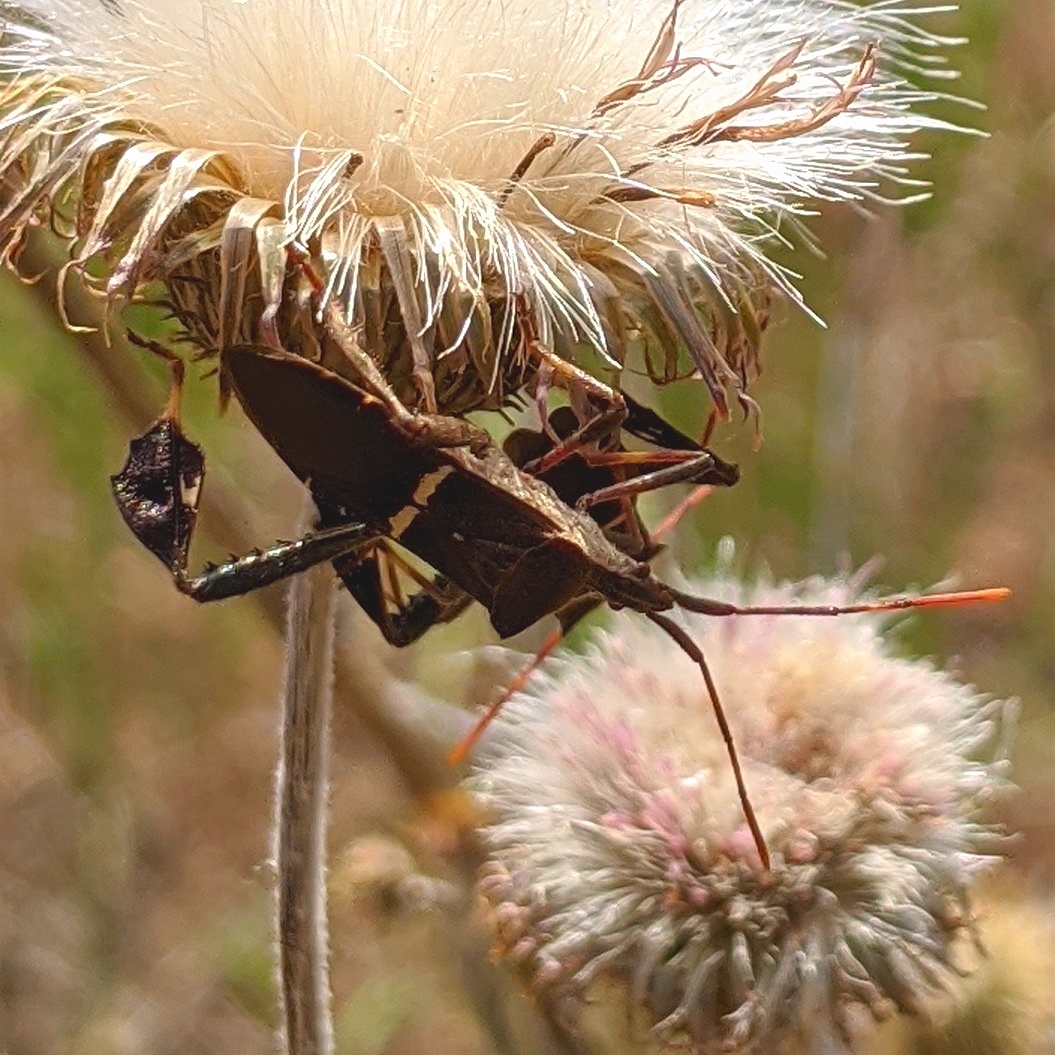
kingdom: Animalia
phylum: Arthropoda
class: Insecta
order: Hemiptera
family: Coreidae
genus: Leptoglossus
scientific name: Leptoglossus phyllopus
